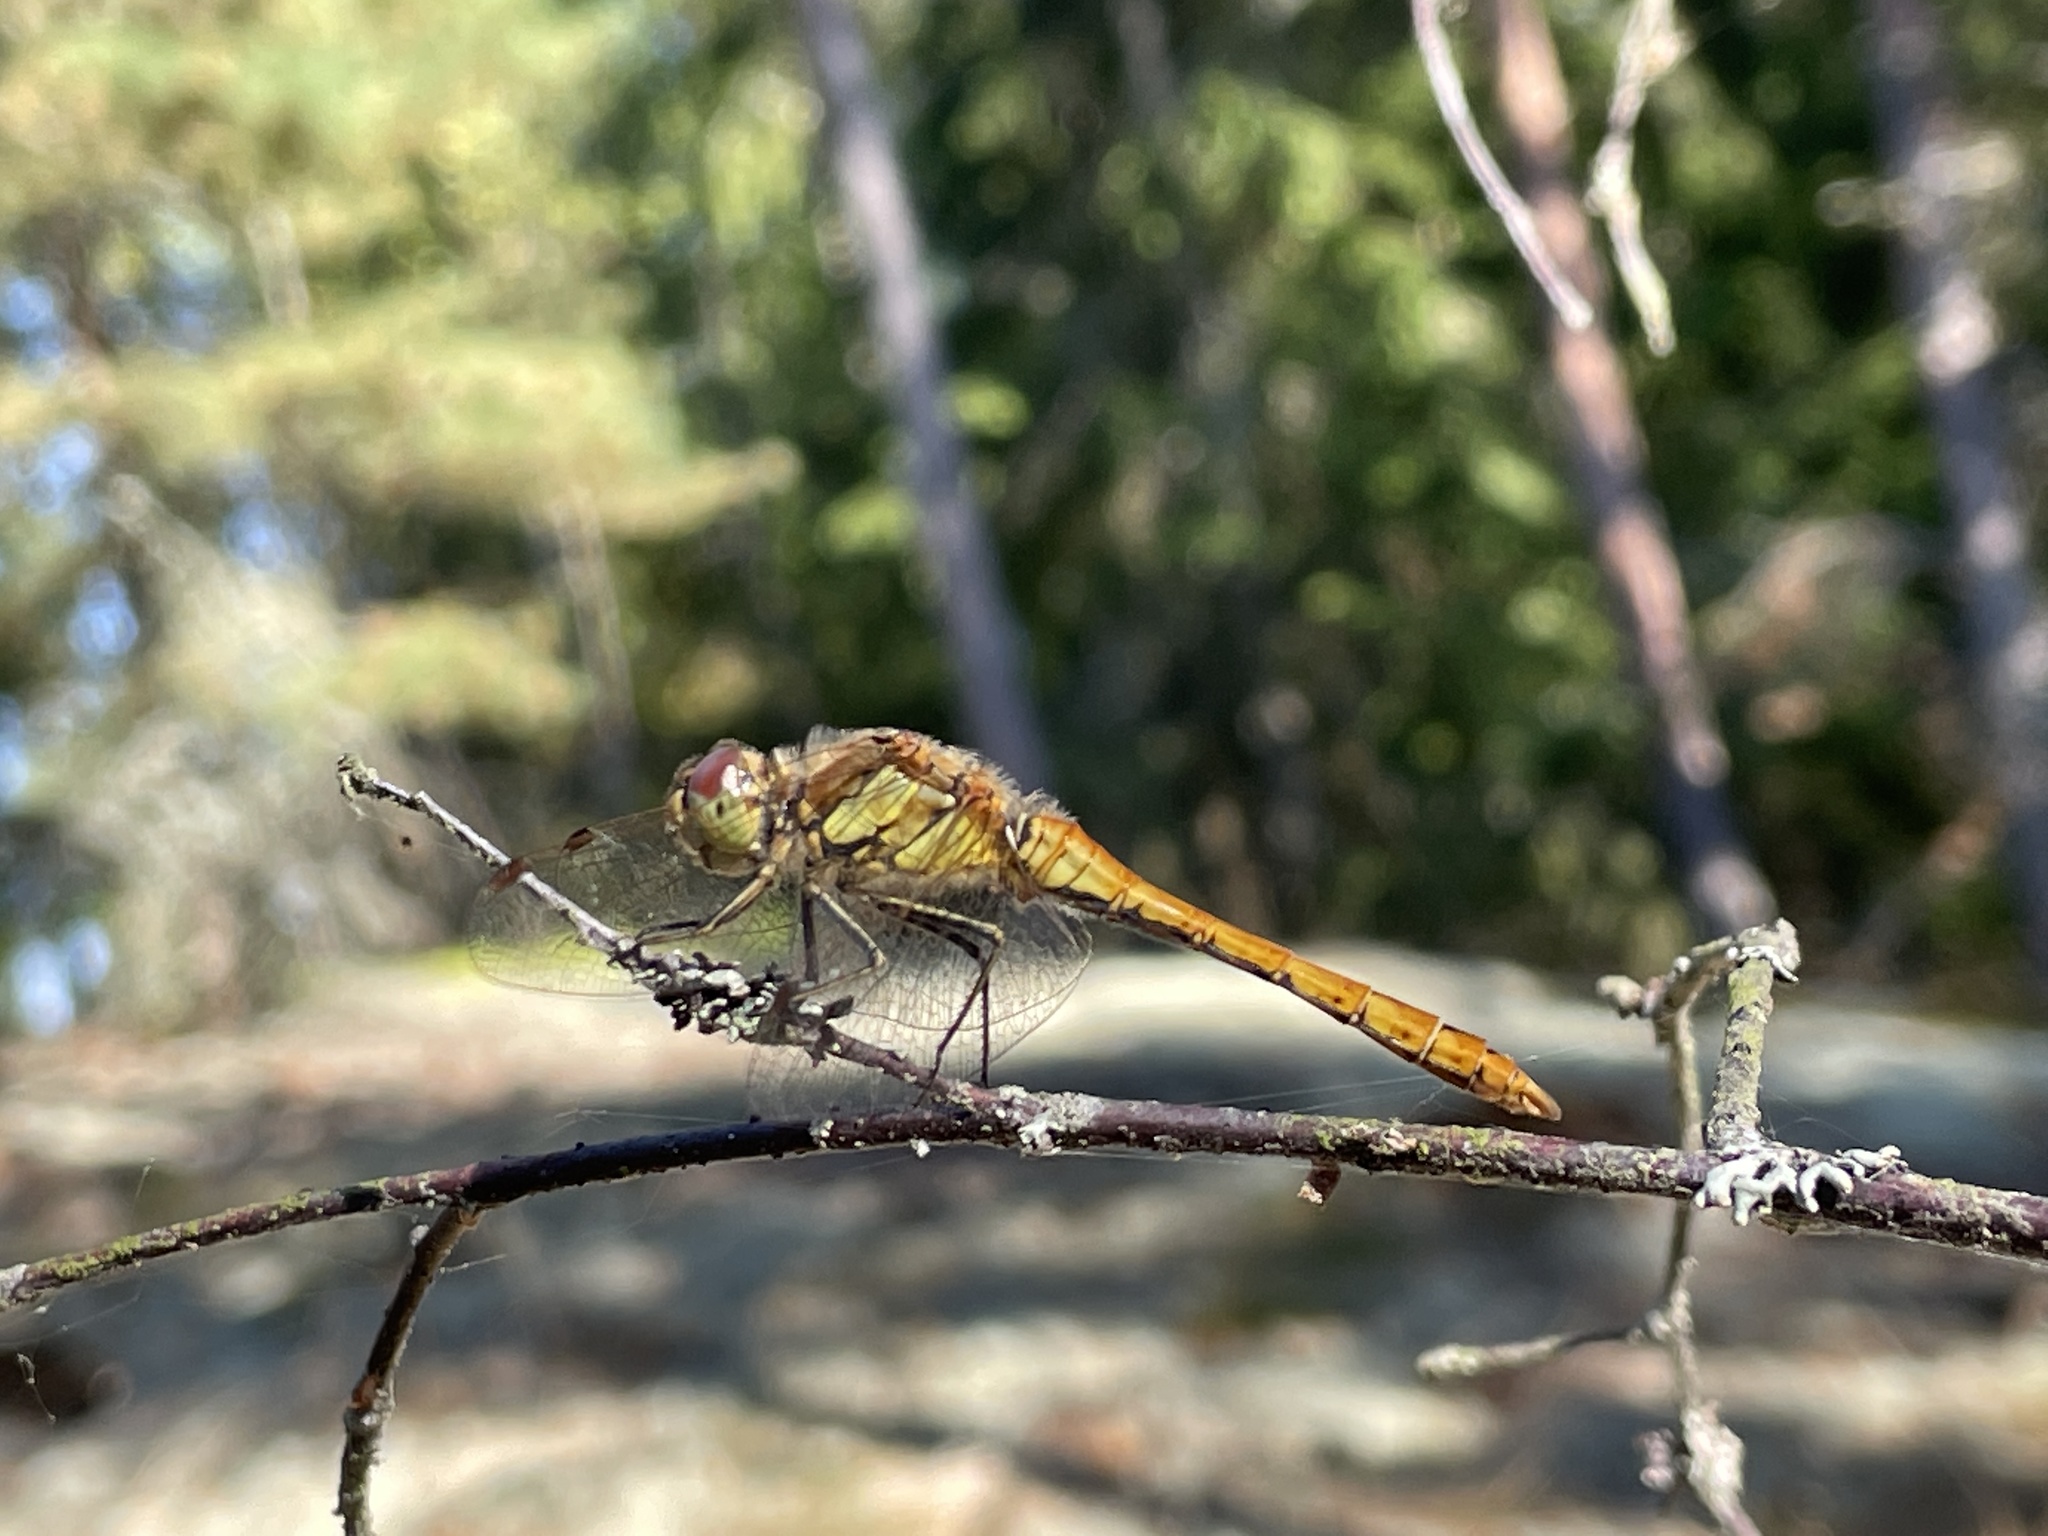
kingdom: Animalia
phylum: Arthropoda
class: Insecta
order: Odonata
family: Libellulidae
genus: Sympetrum
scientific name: Sympetrum vulgatum
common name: Vagrant darter
